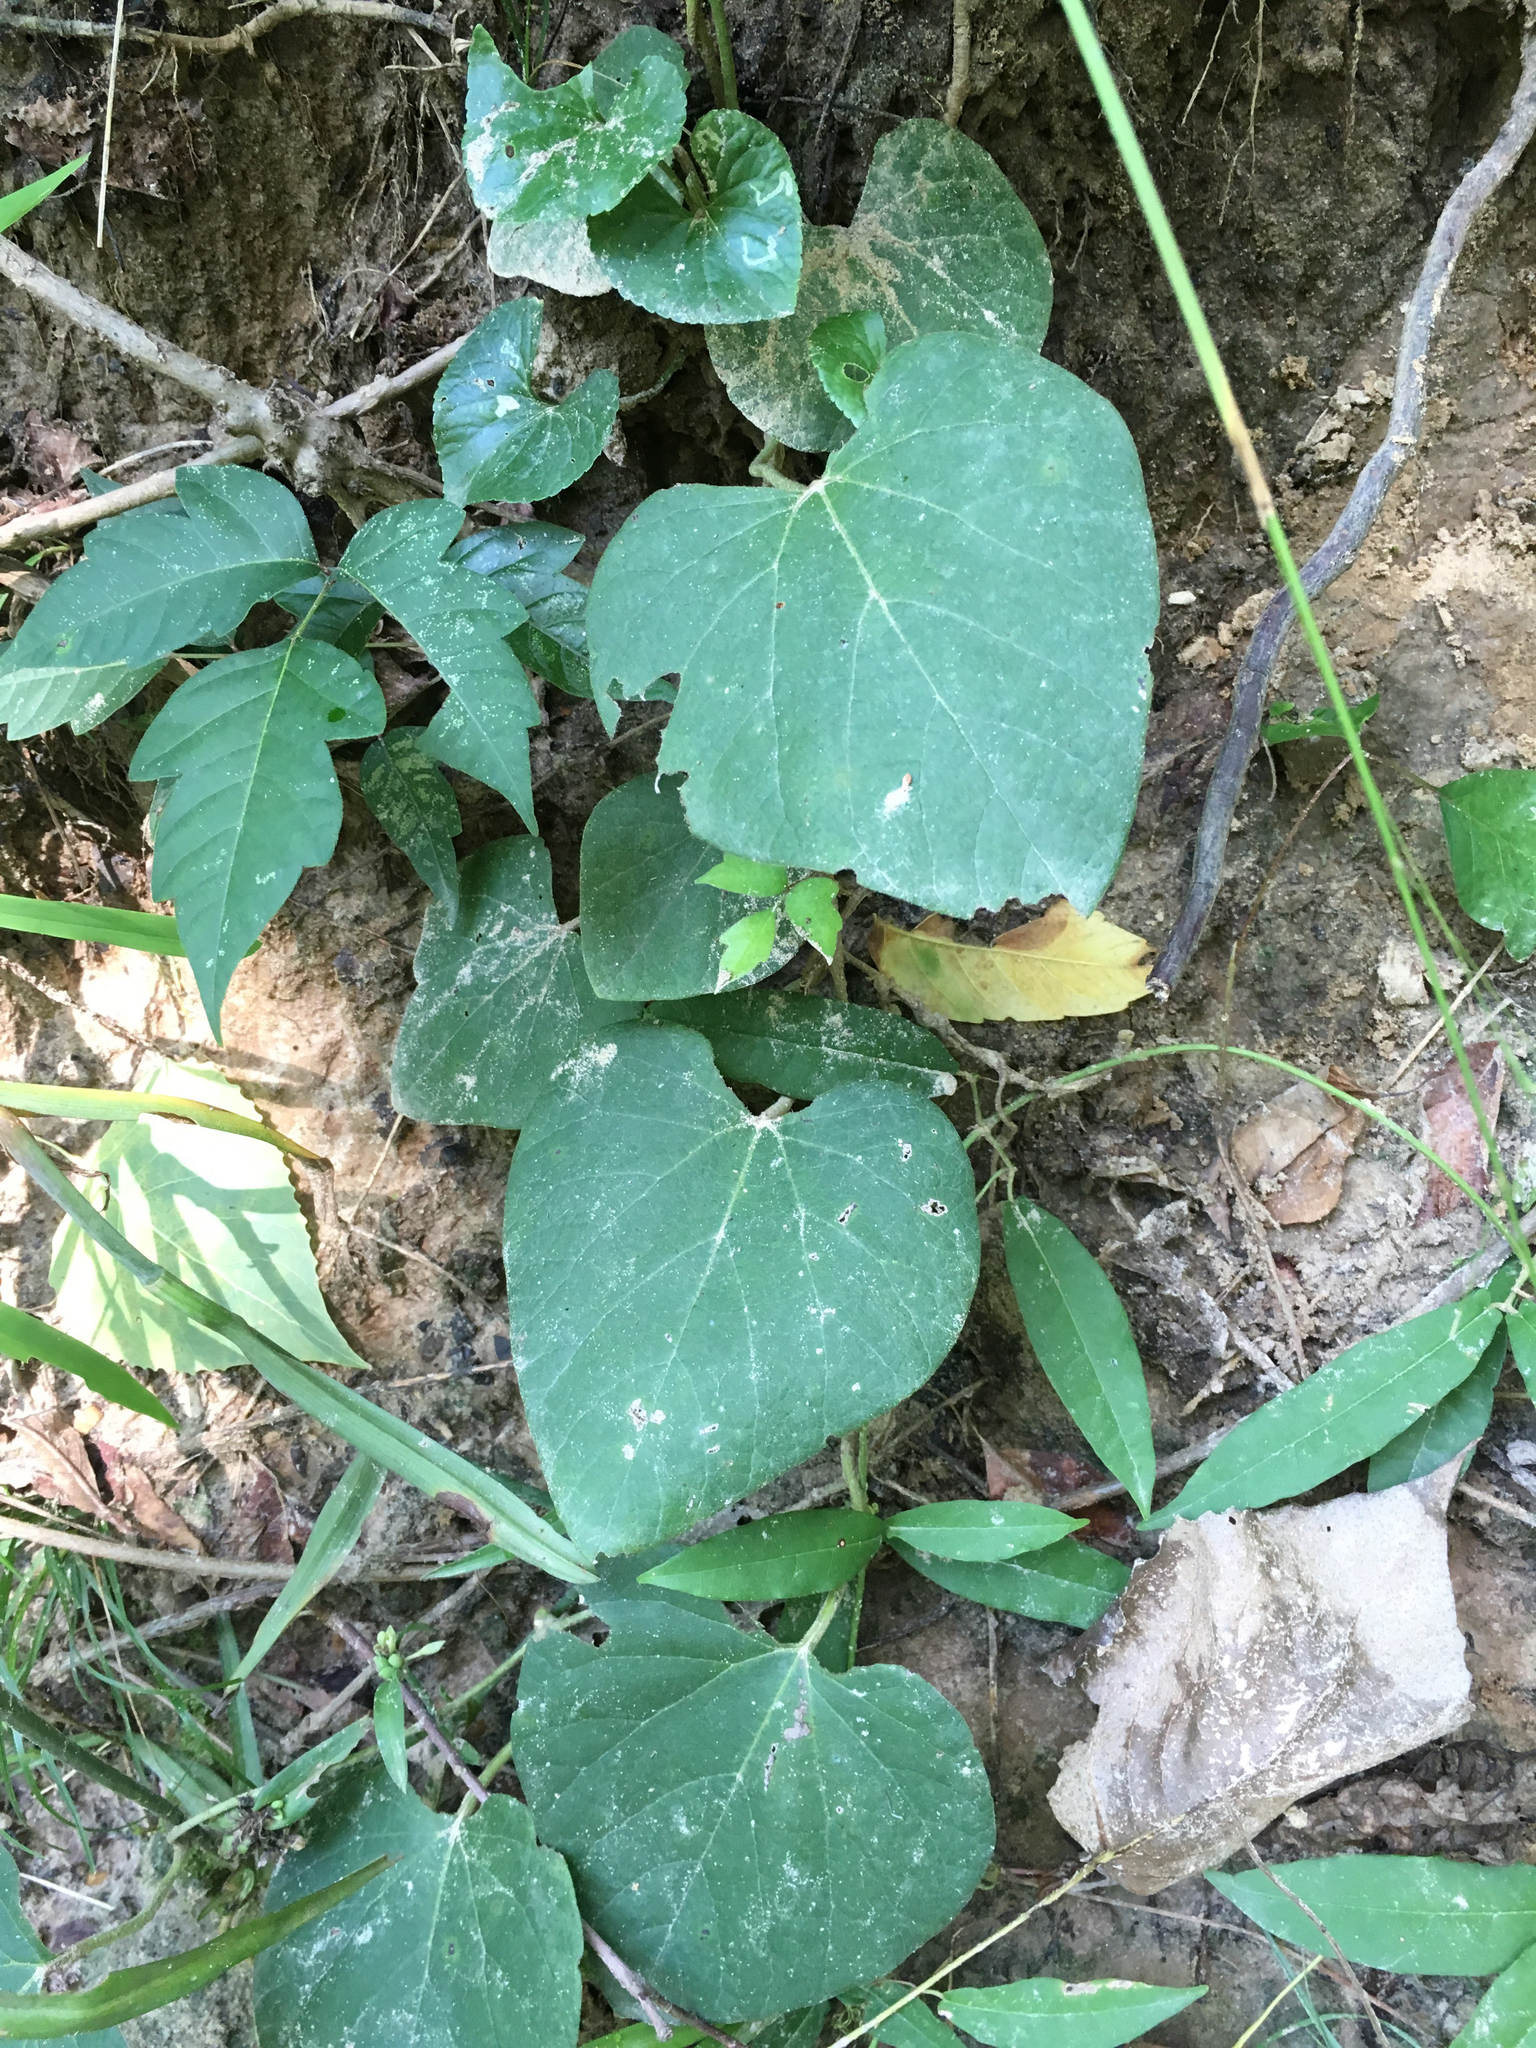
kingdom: Plantae
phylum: Tracheophyta
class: Magnoliopsida
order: Piperales
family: Aristolochiaceae
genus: Isotrema
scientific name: Isotrema tomentosum
